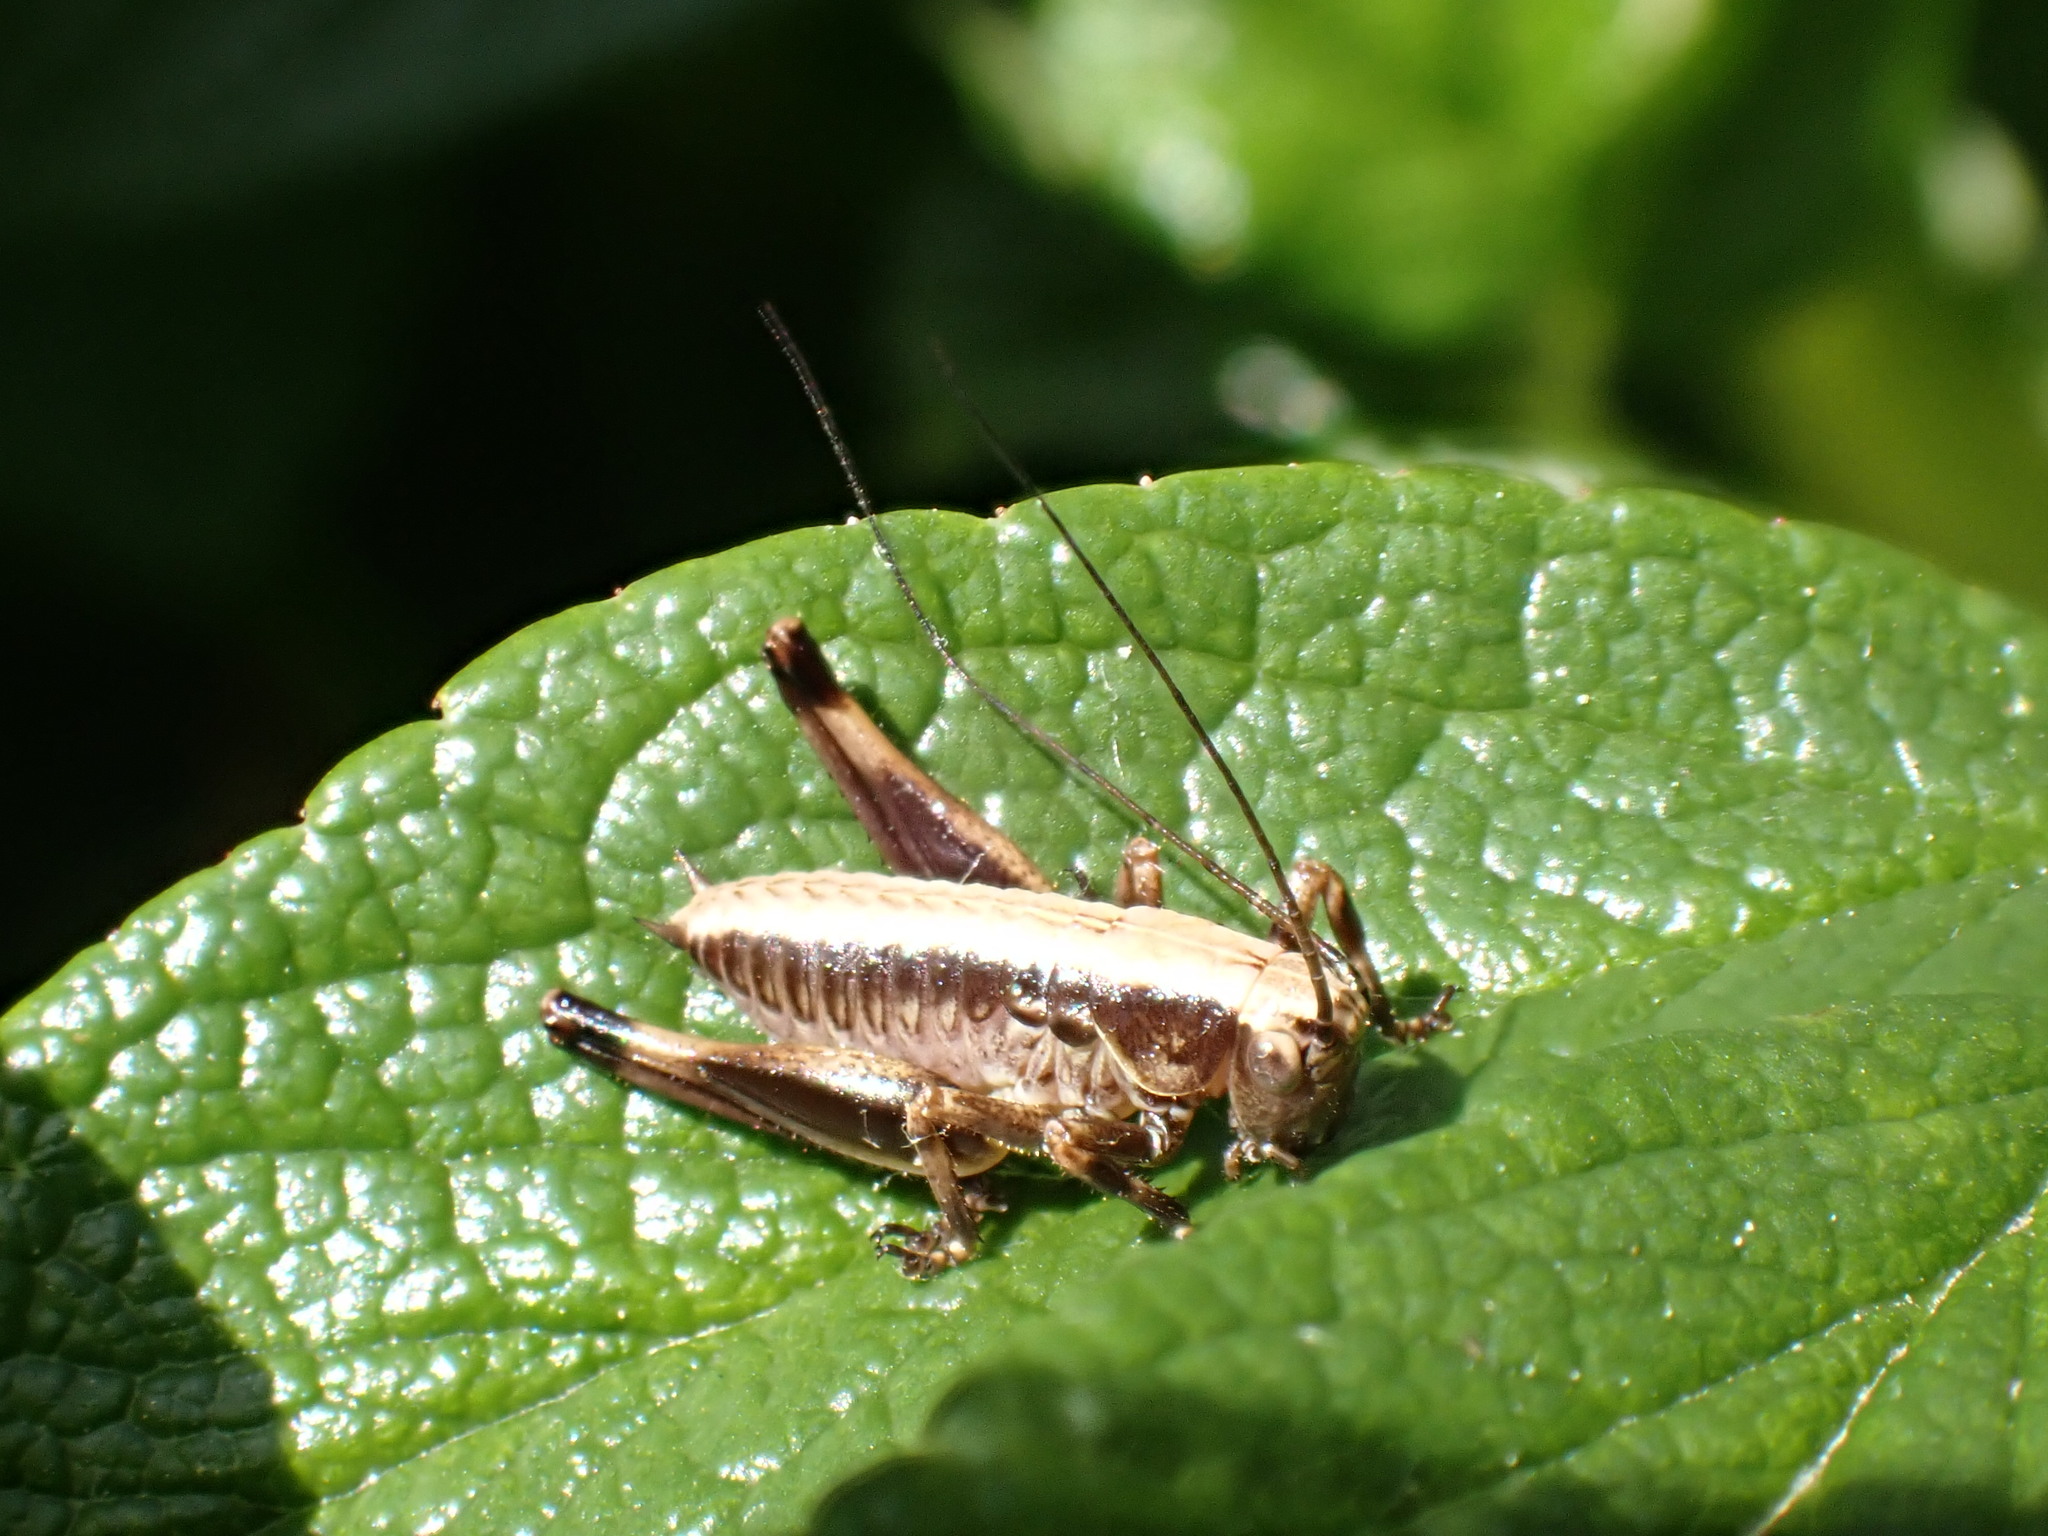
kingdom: Animalia
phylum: Arthropoda
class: Insecta
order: Orthoptera
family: Tettigoniidae
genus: Pholidoptera
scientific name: Pholidoptera griseoaptera
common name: Dark bush-cricket
